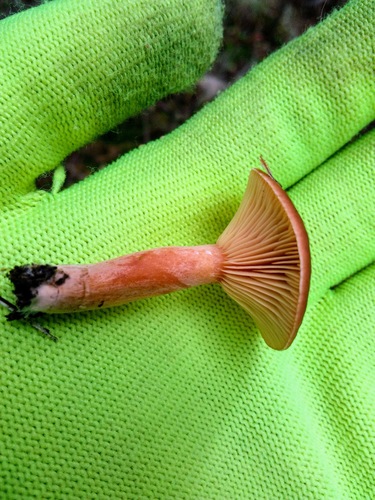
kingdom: Fungi
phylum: Basidiomycota
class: Agaricomycetes
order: Russulales
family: Russulaceae
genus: Lactarius
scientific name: Lactarius
